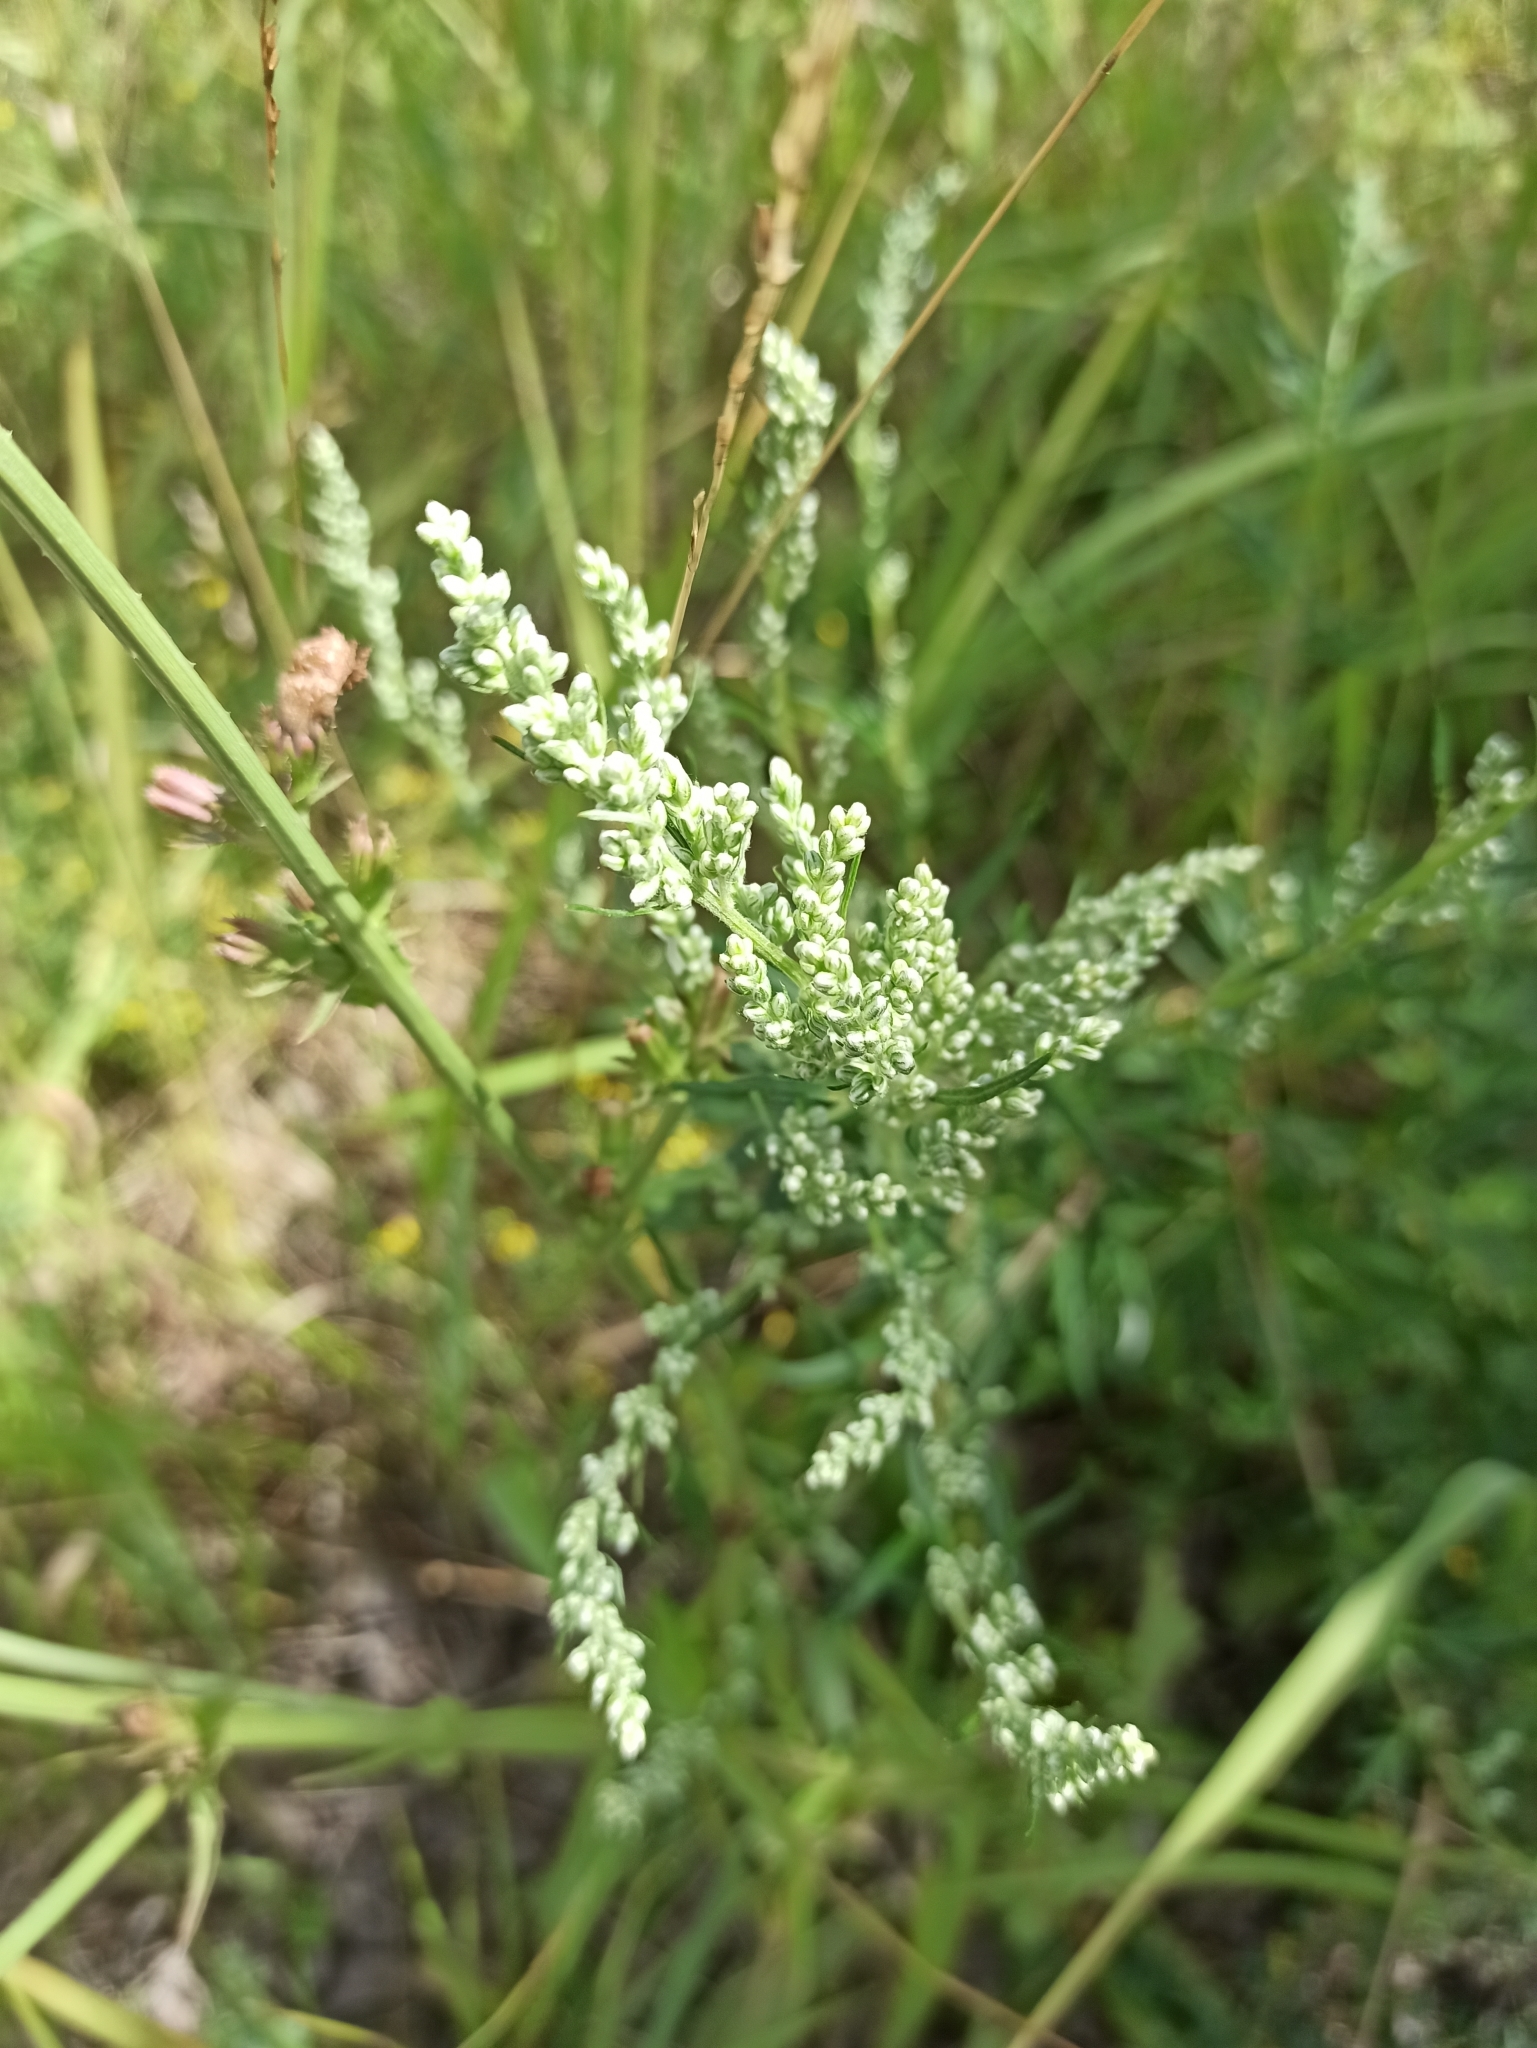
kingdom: Plantae
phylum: Tracheophyta
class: Magnoliopsida
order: Asterales
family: Asteraceae
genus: Artemisia
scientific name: Artemisia vulgaris
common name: Mugwort
